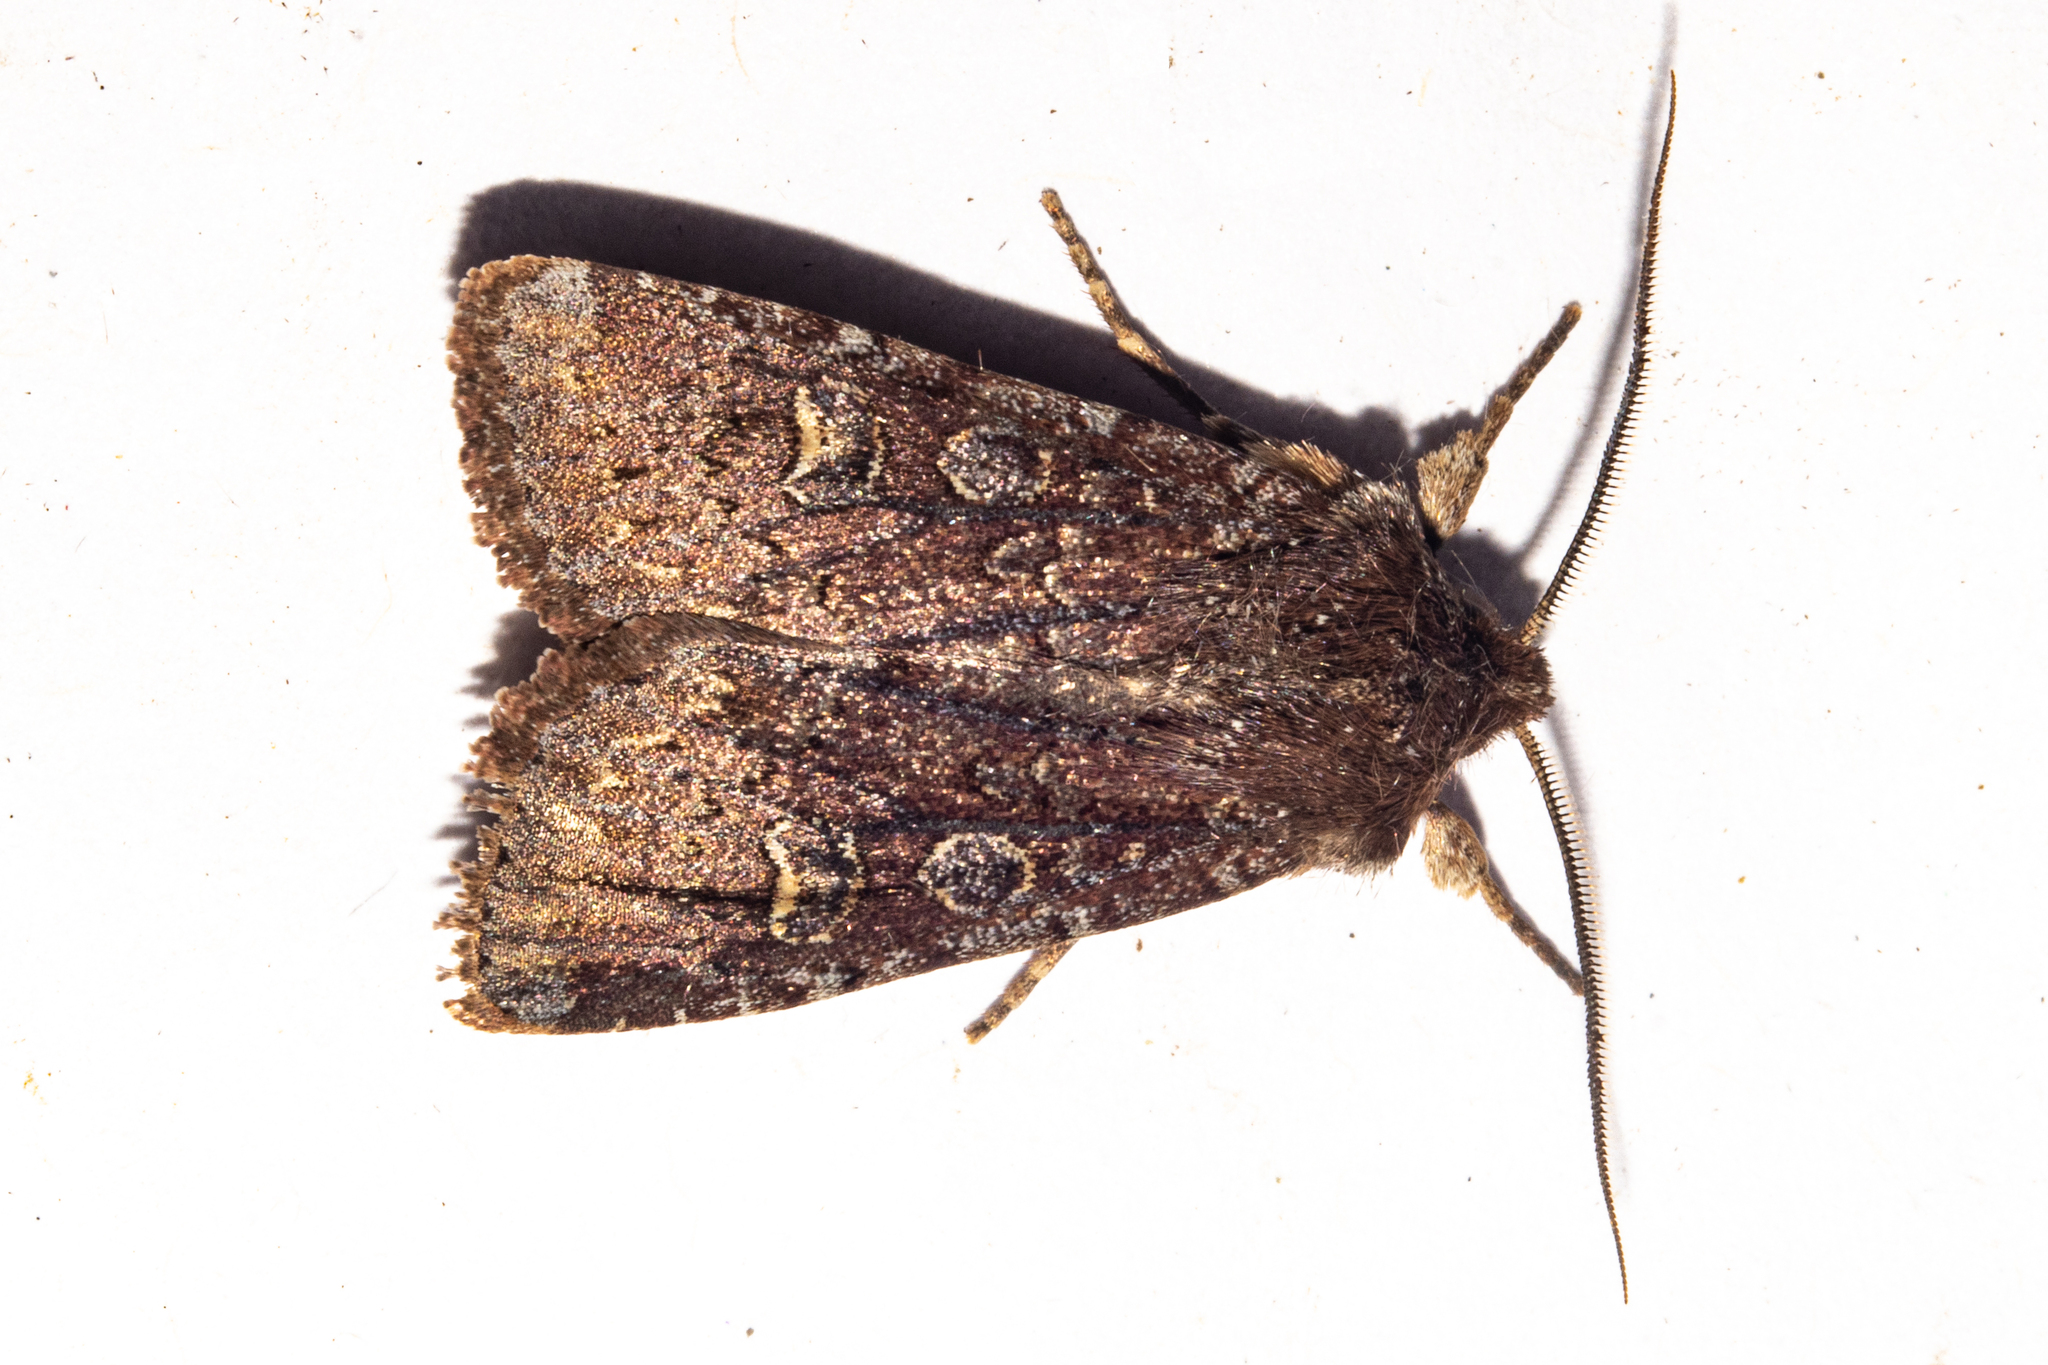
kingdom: Animalia
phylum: Arthropoda
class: Insecta
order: Lepidoptera
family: Noctuidae
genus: Ichneutica
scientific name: Ichneutica agorastis
